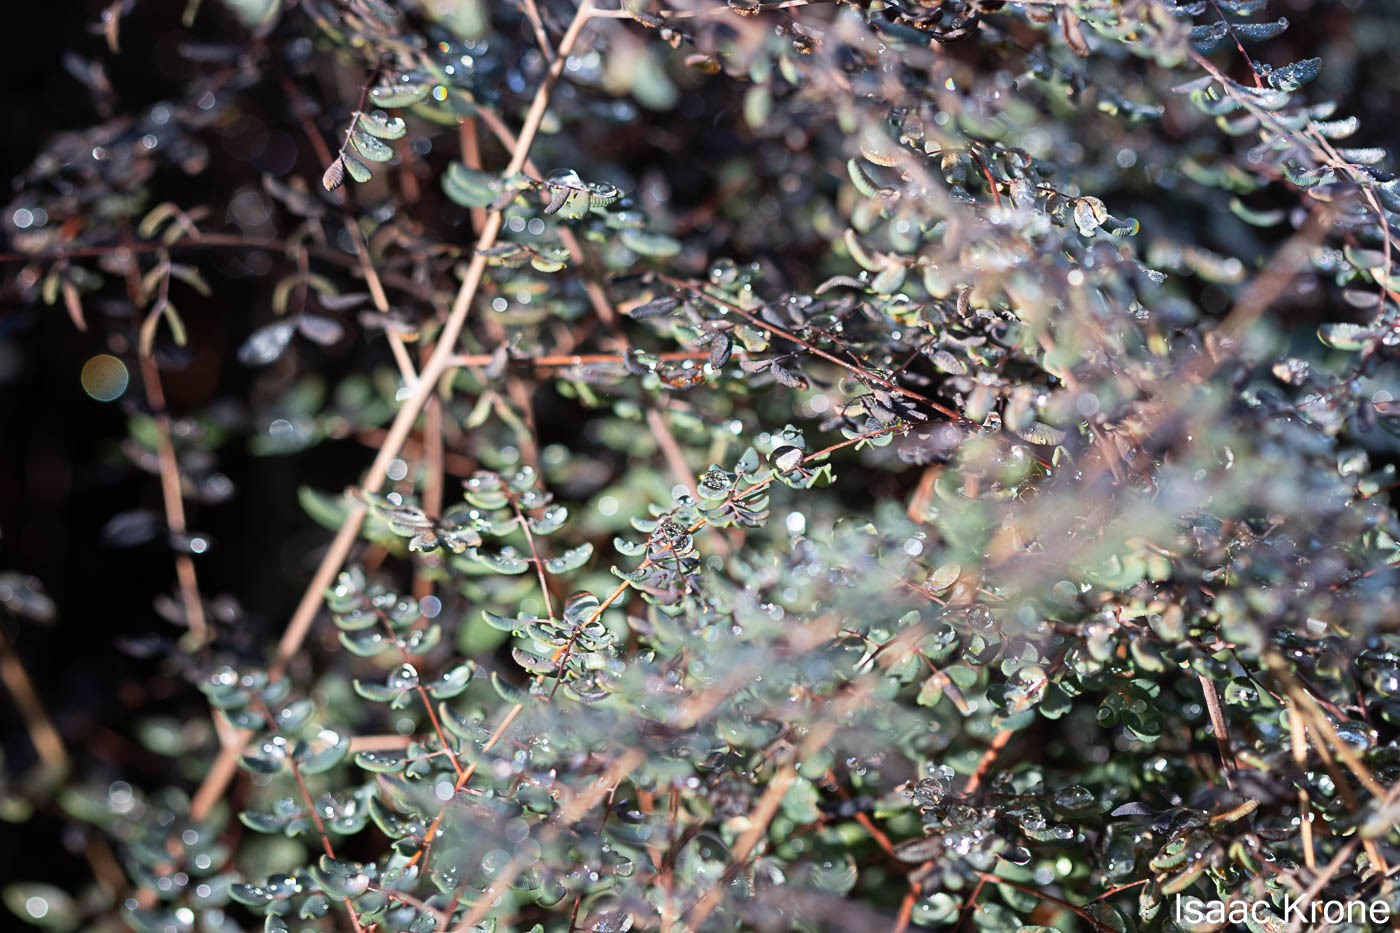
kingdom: Plantae
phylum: Tracheophyta
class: Polypodiopsida
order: Polypodiales
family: Pteridaceae
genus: Pellaea
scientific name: Pellaea andromedifolia
